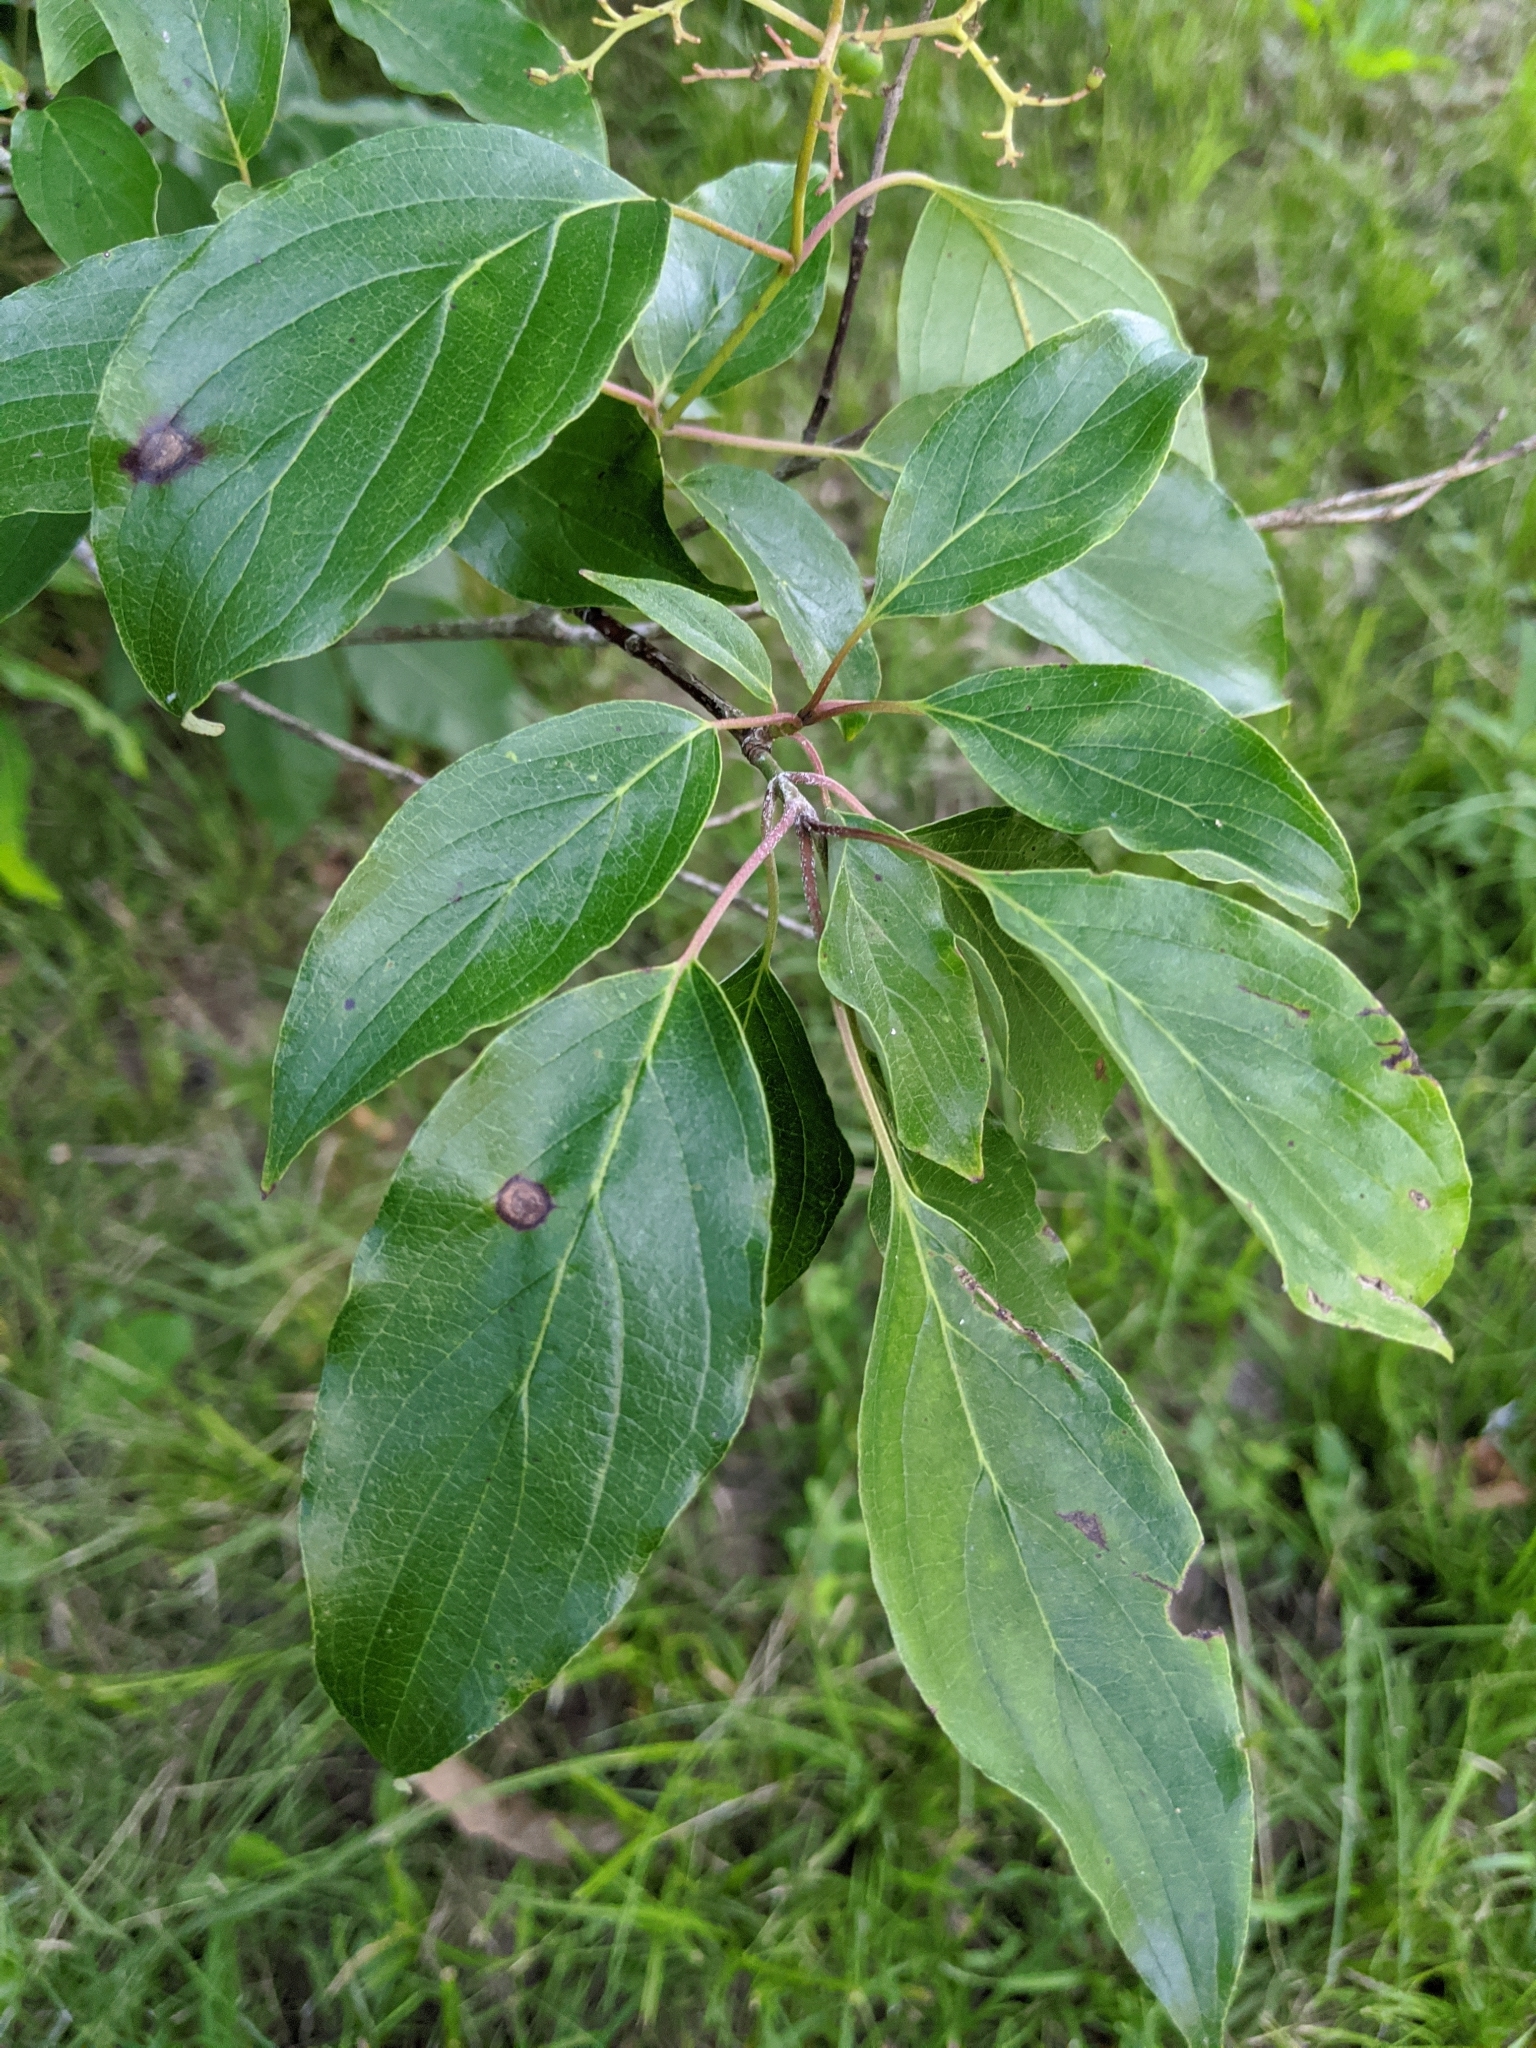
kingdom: Plantae
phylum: Tracheophyta
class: Magnoliopsida
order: Cornales
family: Cornaceae
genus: Cornus
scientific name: Cornus drummondii
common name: Rough-leaf dogwood
